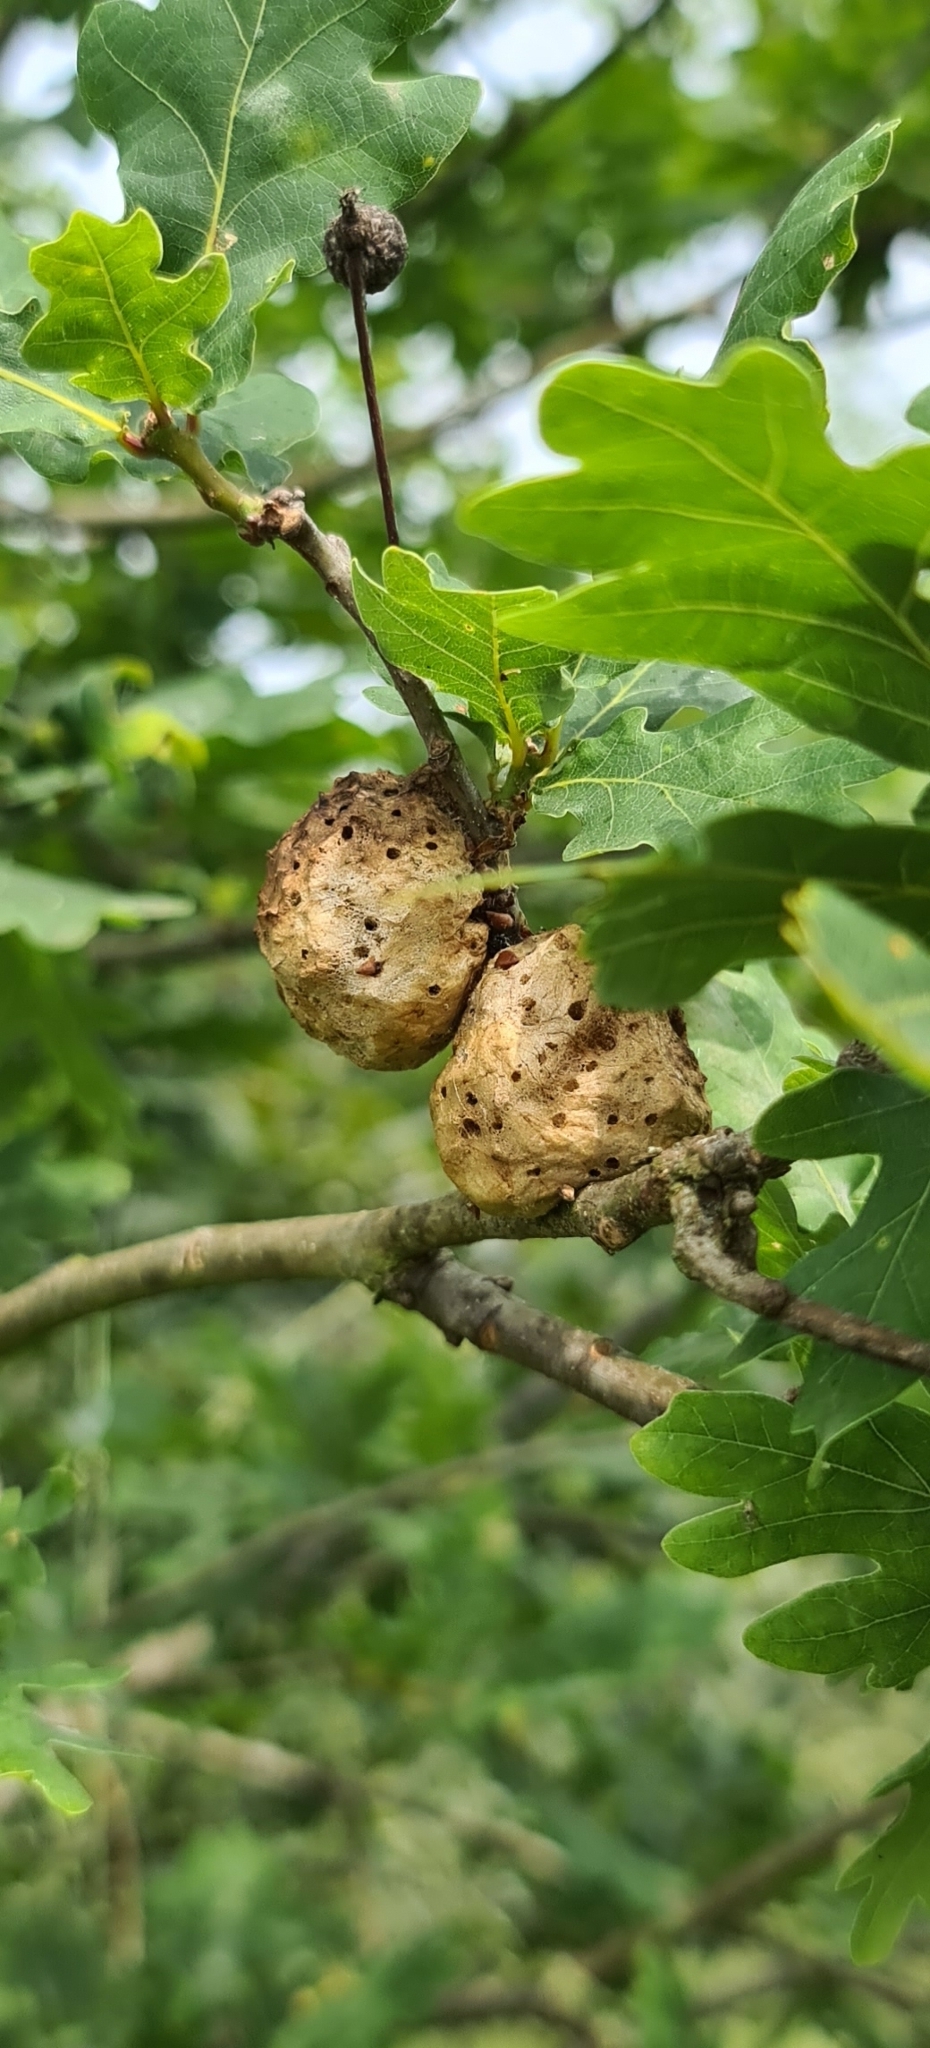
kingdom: Animalia
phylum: Arthropoda
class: Insecta
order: Hymenoptera
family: Cynipidae
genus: Biorhiza
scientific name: Biorhiza pallida
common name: Oak apple
